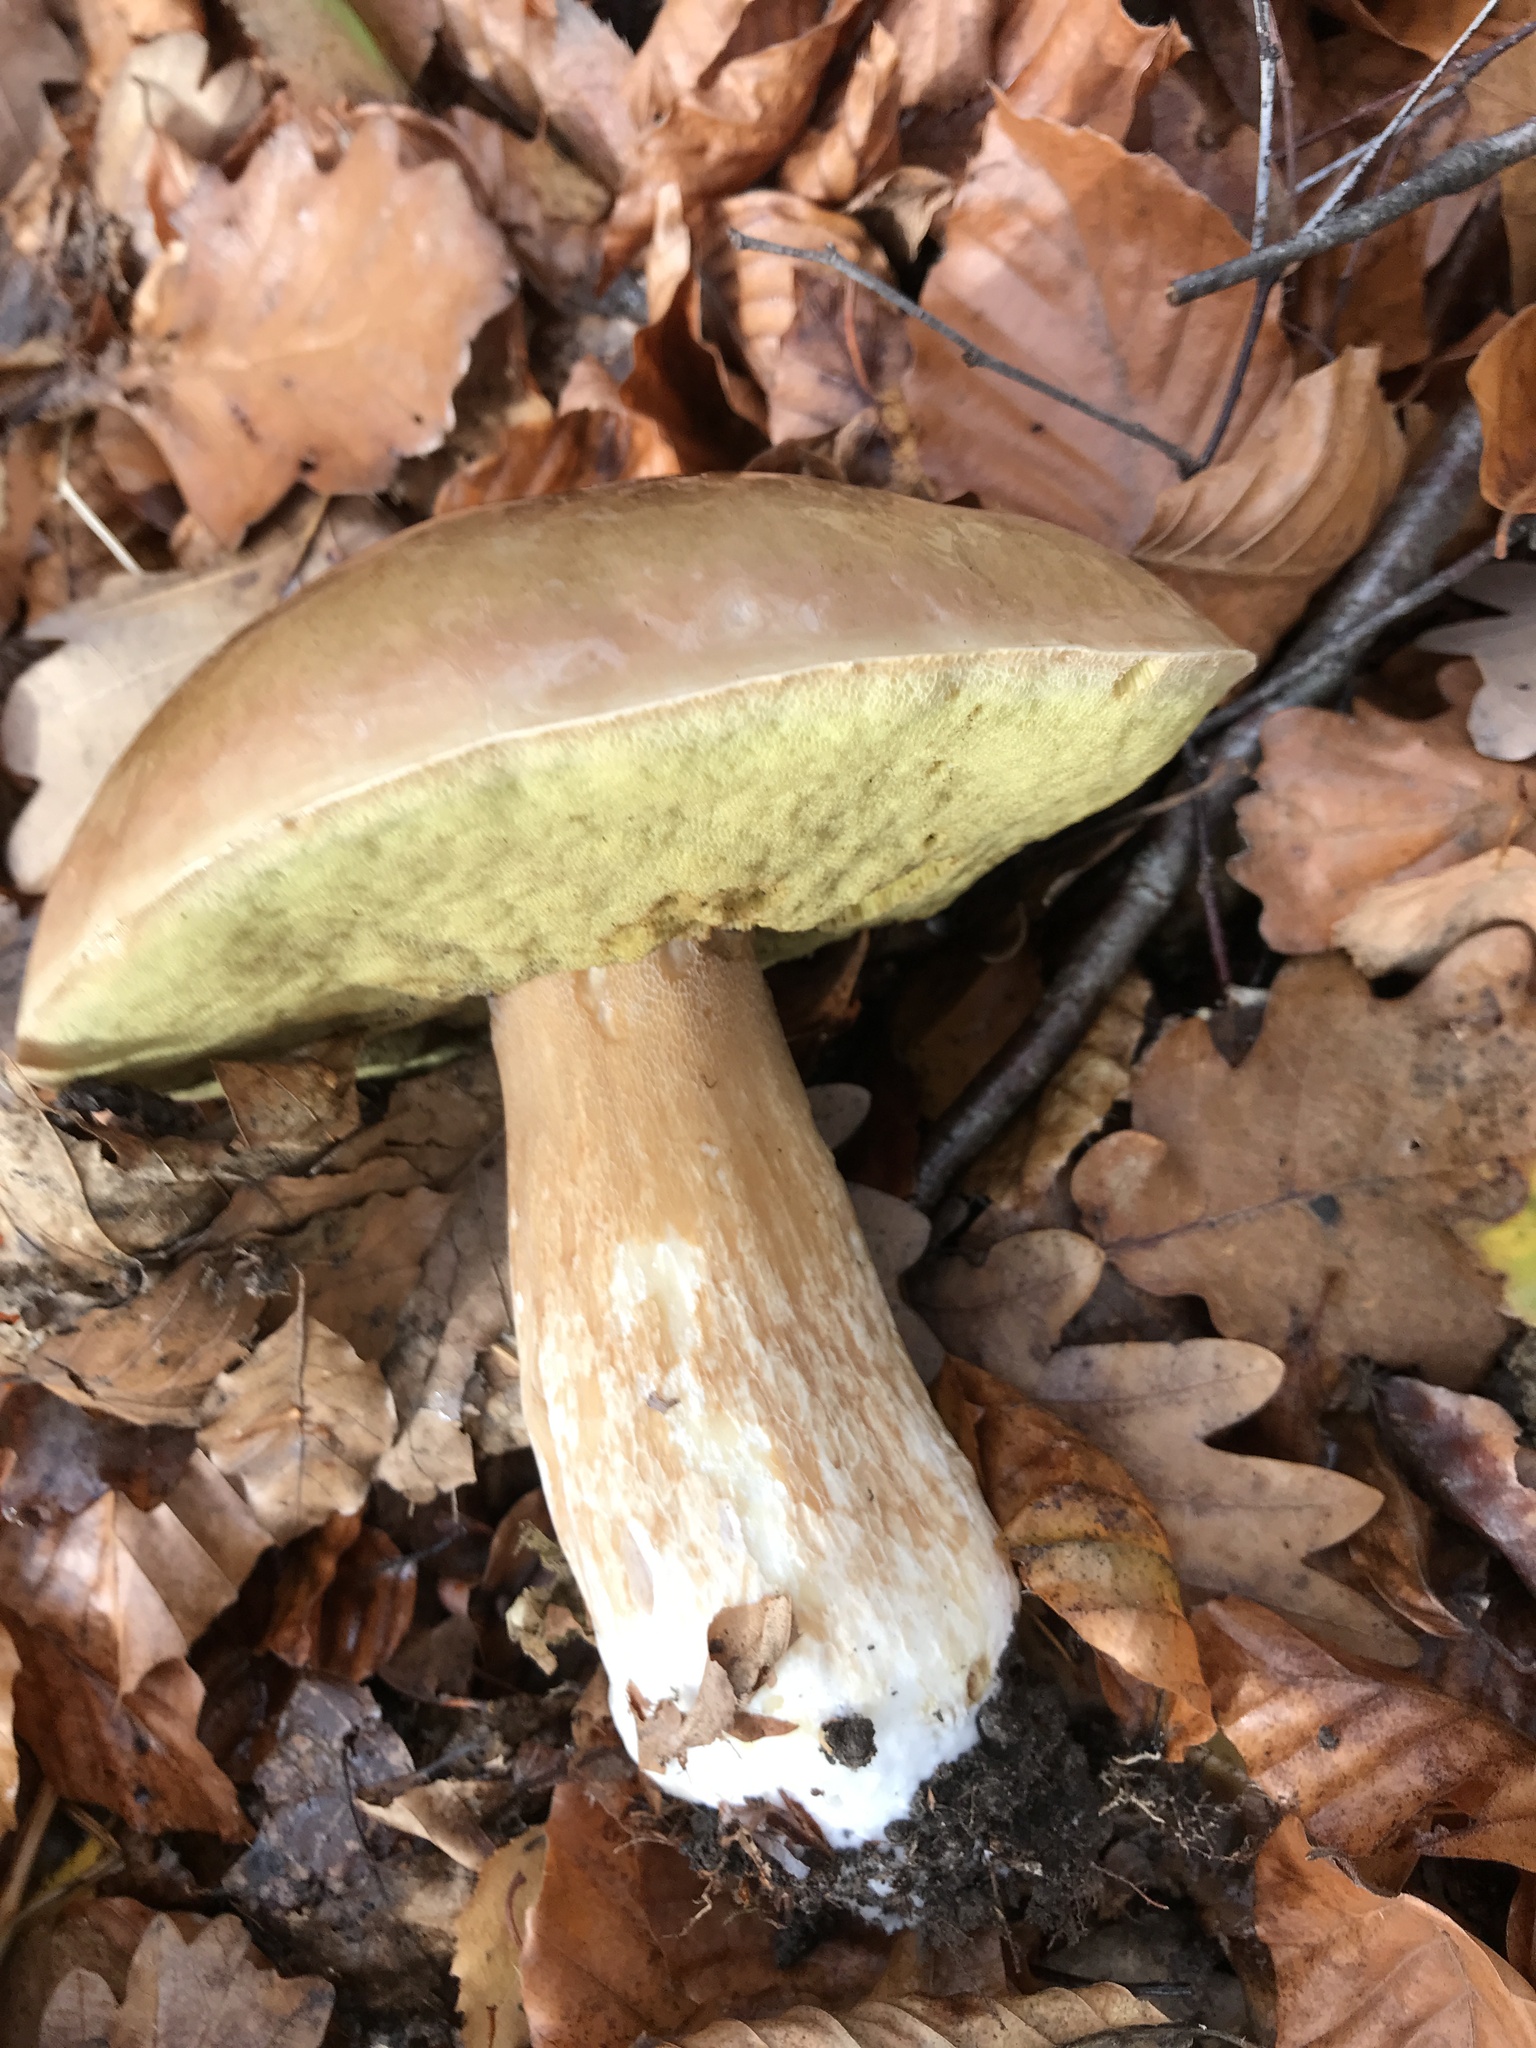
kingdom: Fungi
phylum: Basidiomycota
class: Agaricomycetes
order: Boletales
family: Boletaceae
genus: Boletus
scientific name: Boletus edulis
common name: Cep
